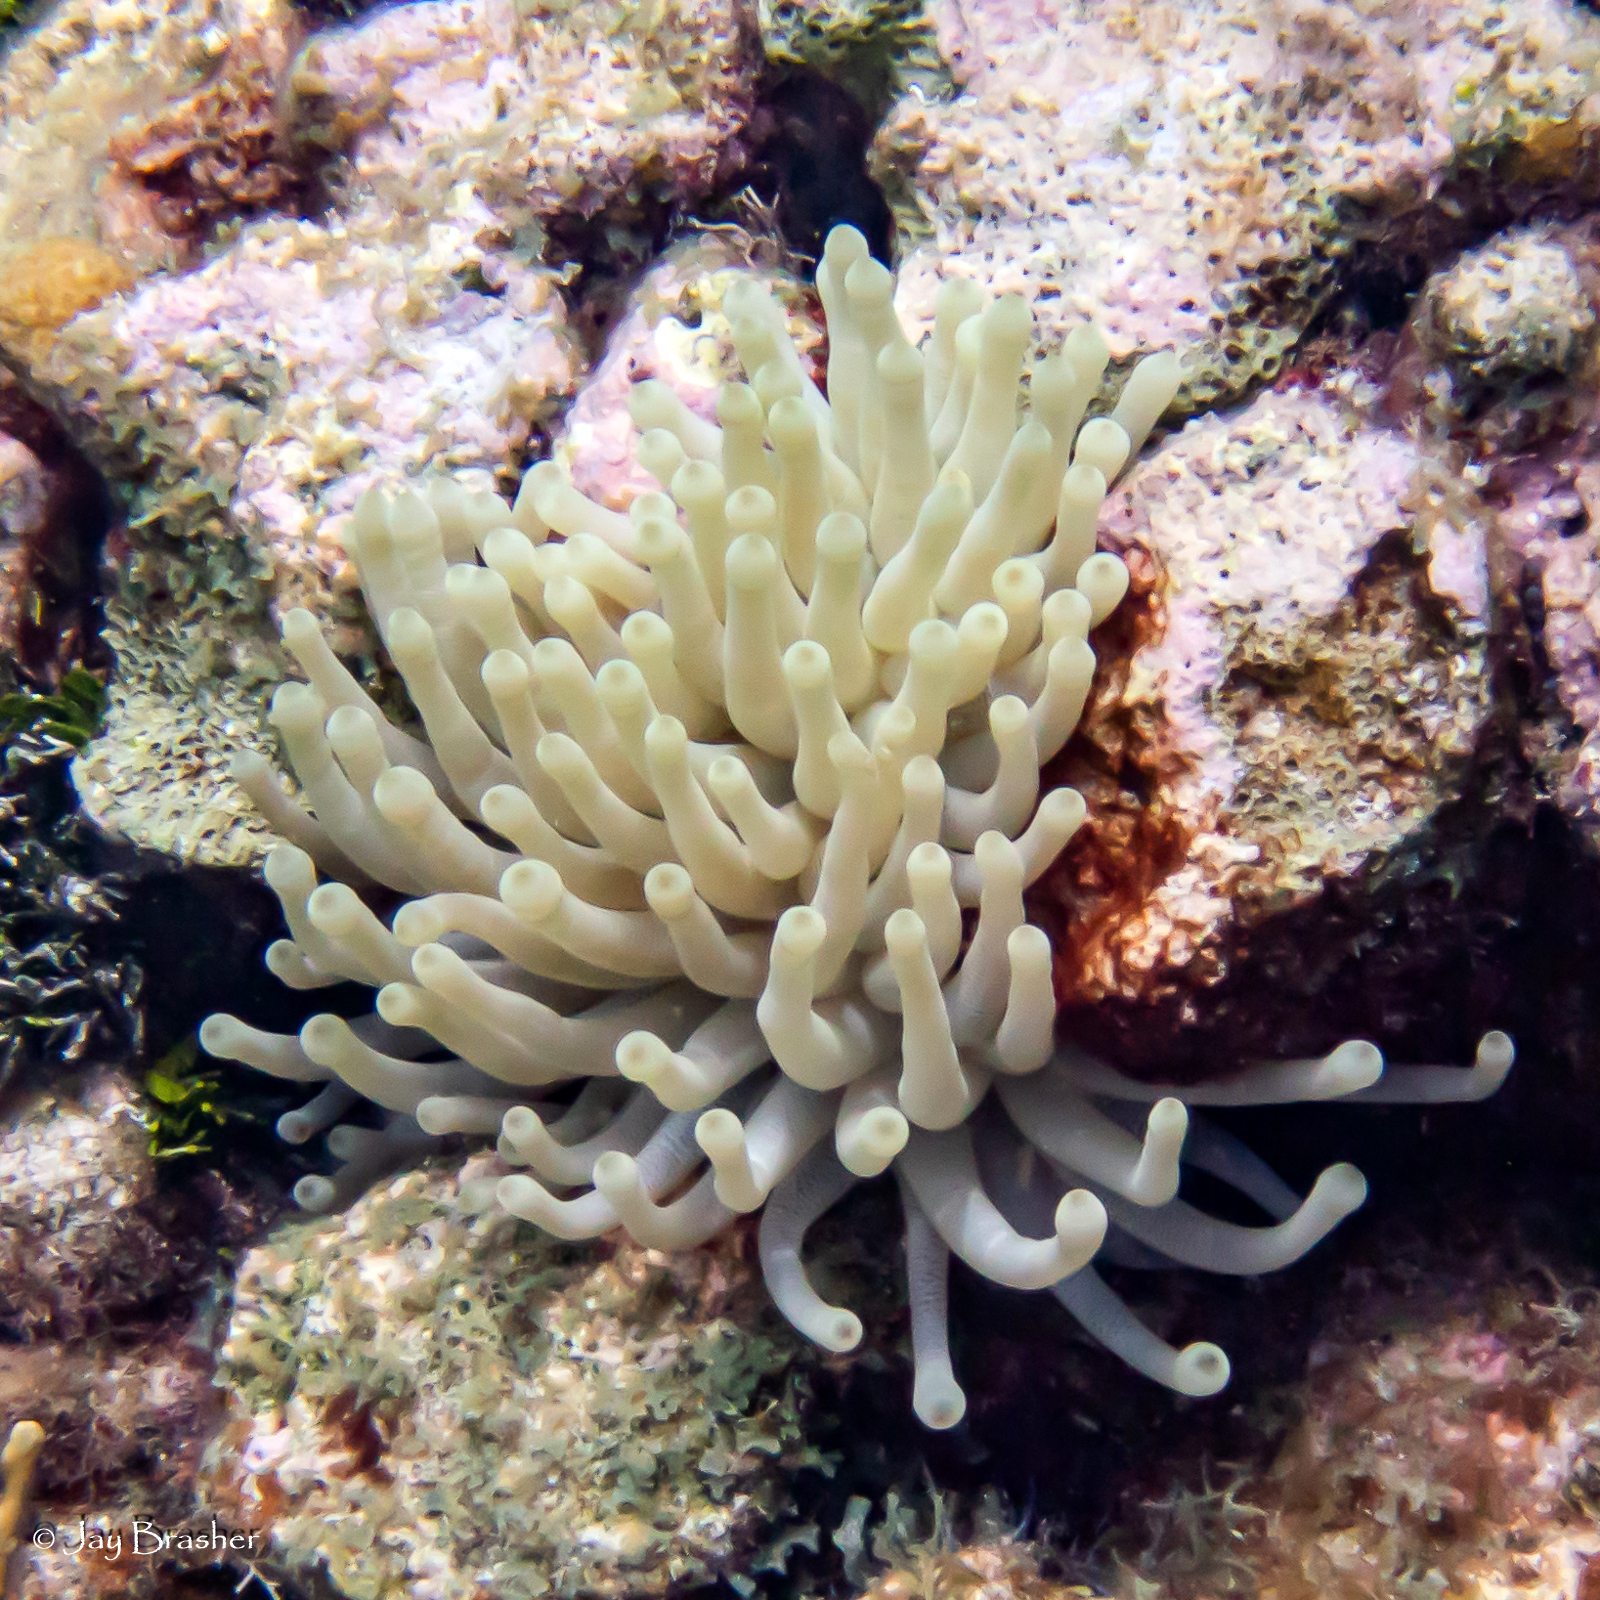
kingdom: Animalia
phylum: Cnidaria
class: Anthozoa
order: Actiniaria
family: Actiniidae
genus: Condylactis
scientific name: Condylactis gigantea
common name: Giant caribbean anemone
